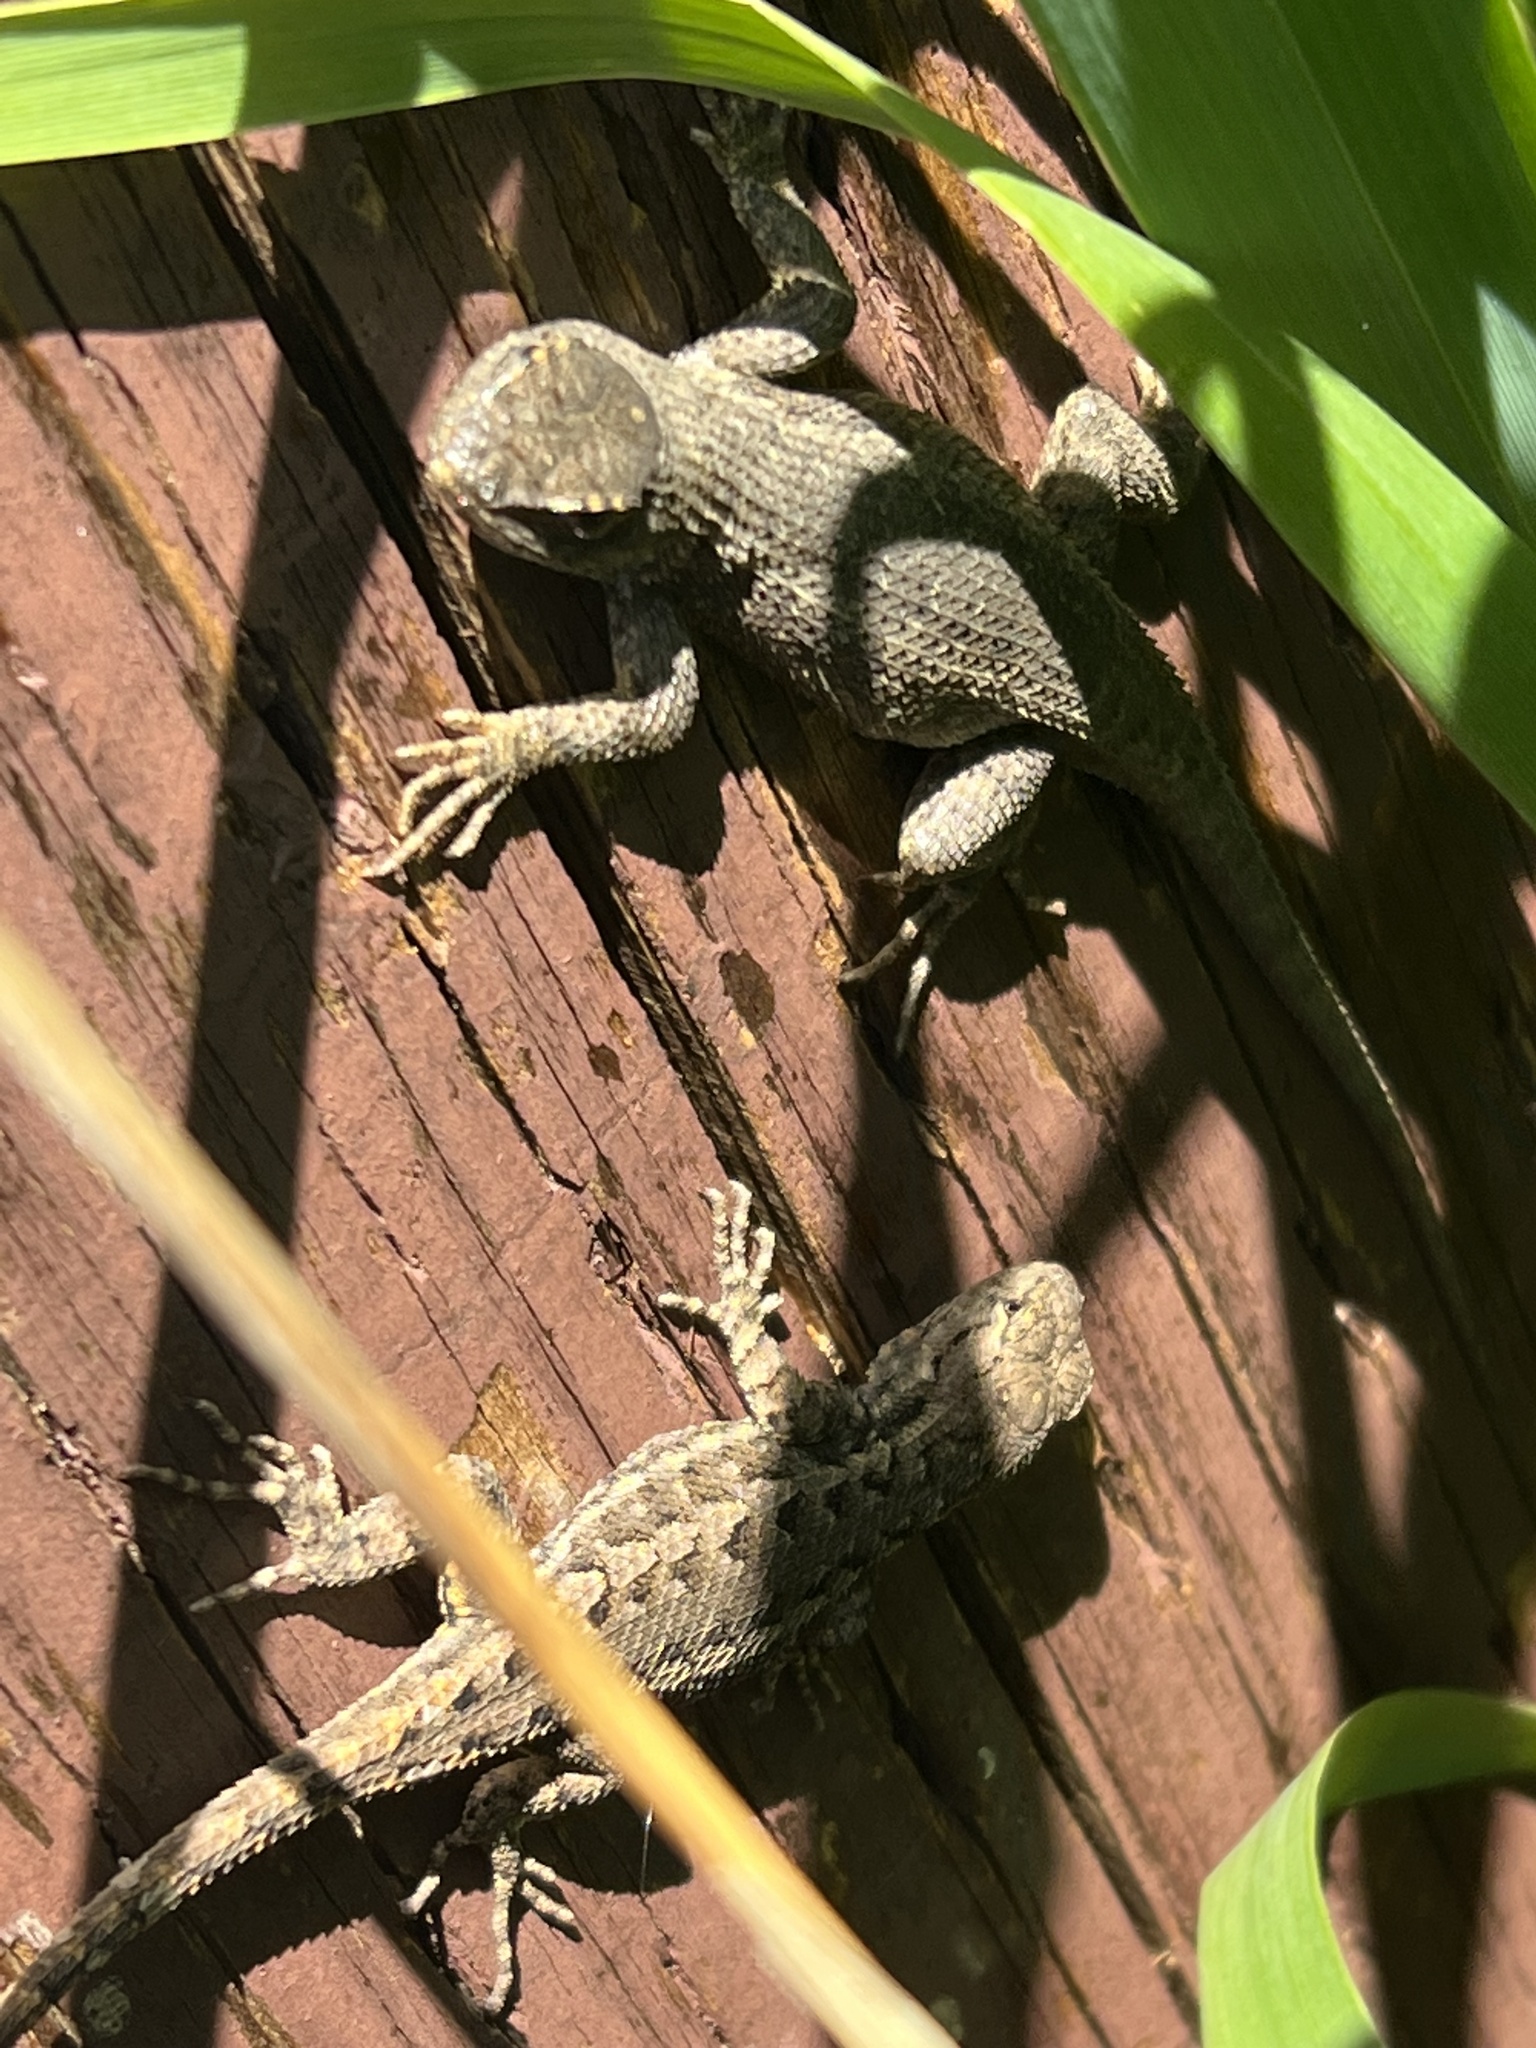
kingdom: Animalia
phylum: Chordata
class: Squamata
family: Phrynosomatidae
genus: Sceloporus
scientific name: Sceloporus occidentalis
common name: Western fence lizard
